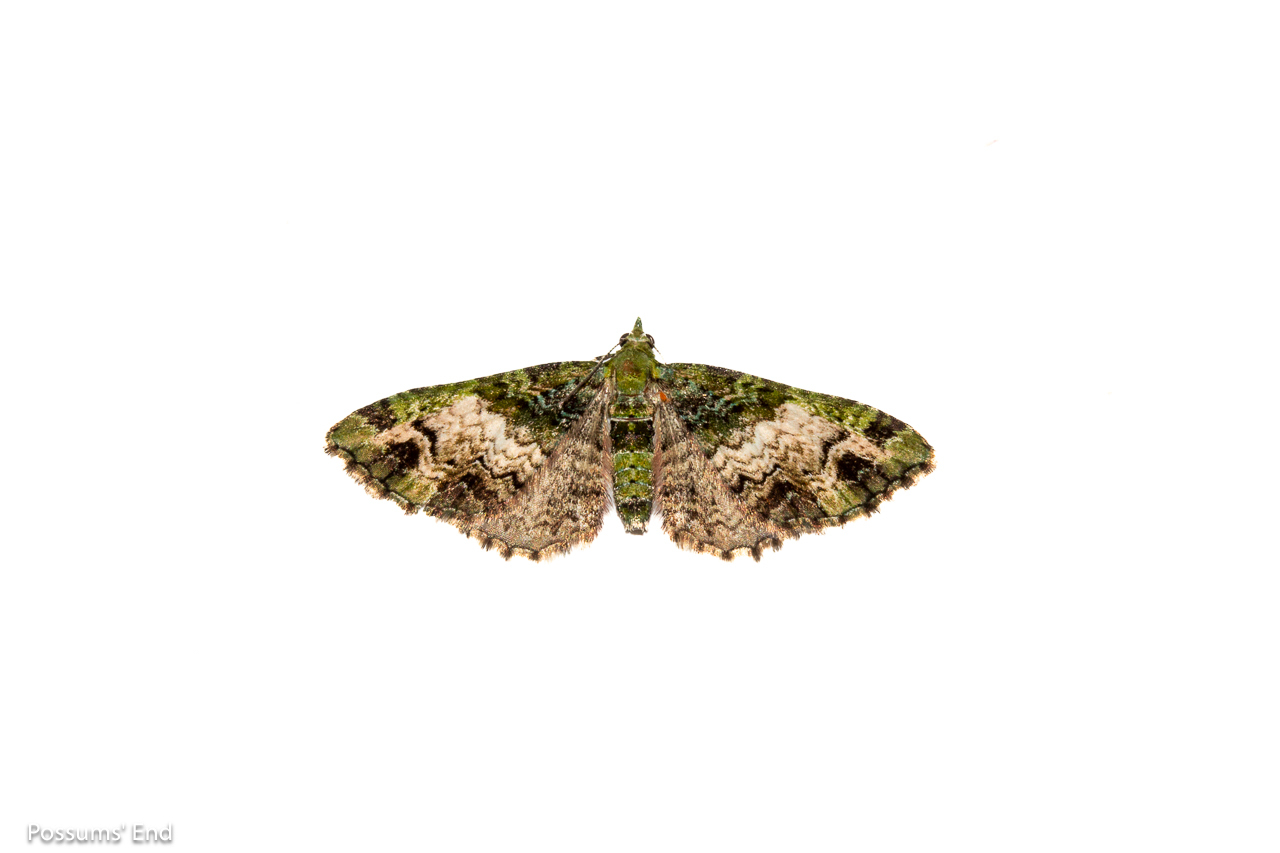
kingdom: Animalia
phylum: Arthropoda
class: Insecta
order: Lepidoptera
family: Geometridae
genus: Pasiphila
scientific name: Pasiphila malachita
